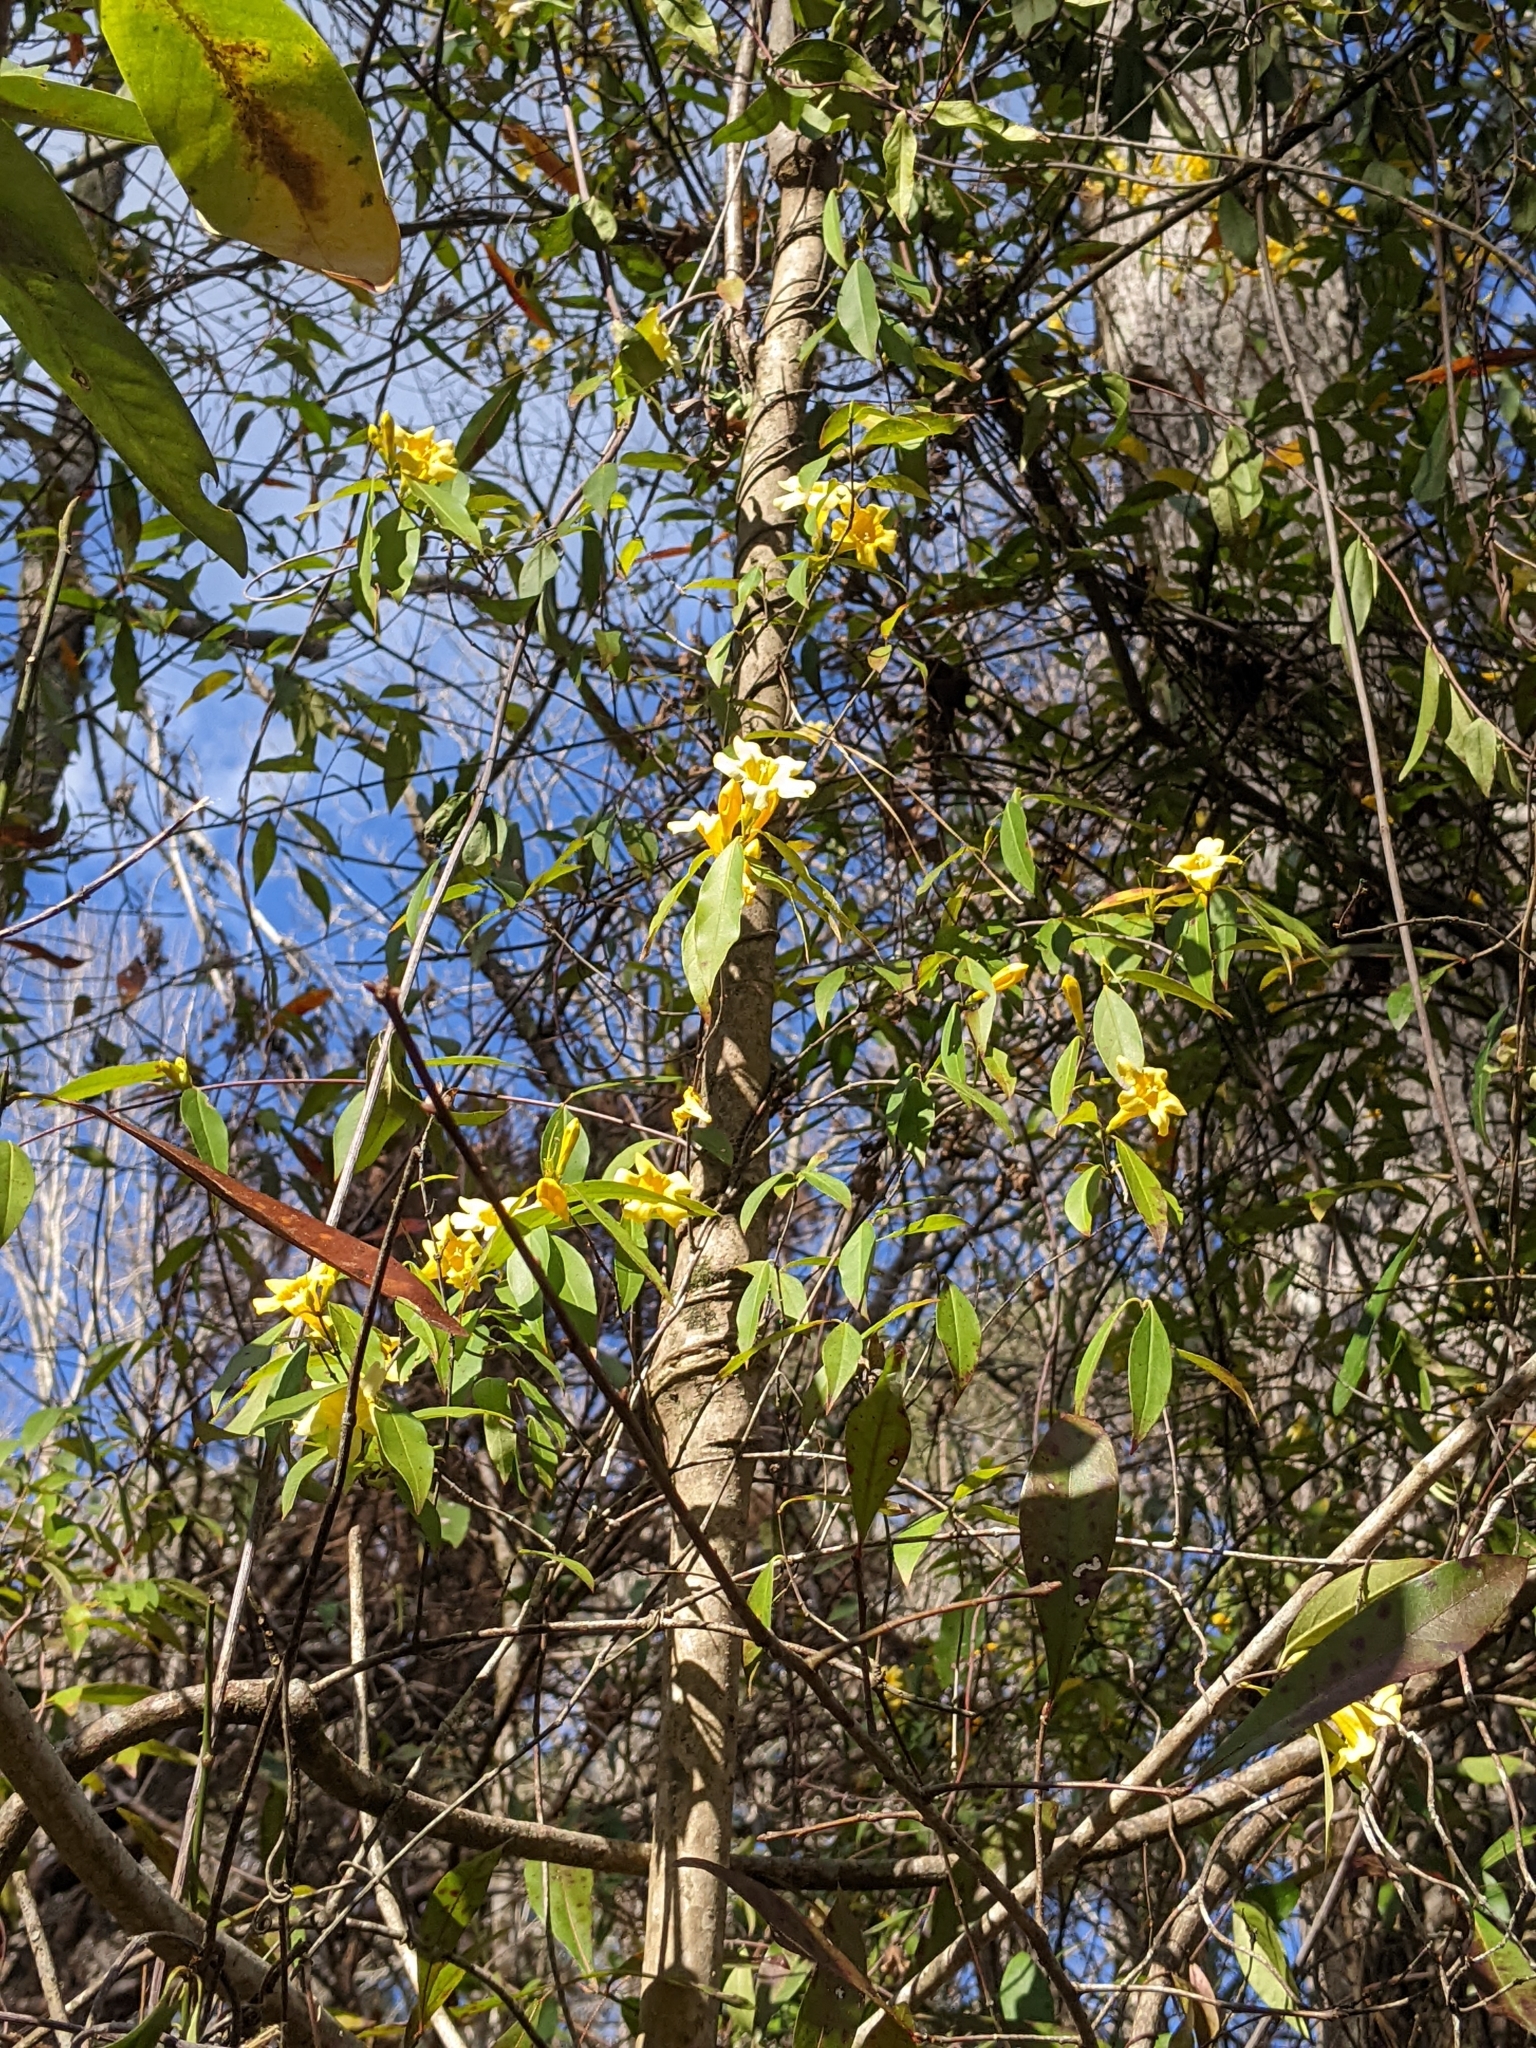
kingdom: Plantae
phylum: Tracheophyta
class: Magnoliopsida
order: Gentianales
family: Gelsemiaceae
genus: Gelsemium
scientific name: Gelsemium sempervirens
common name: Carolina-jasmine
